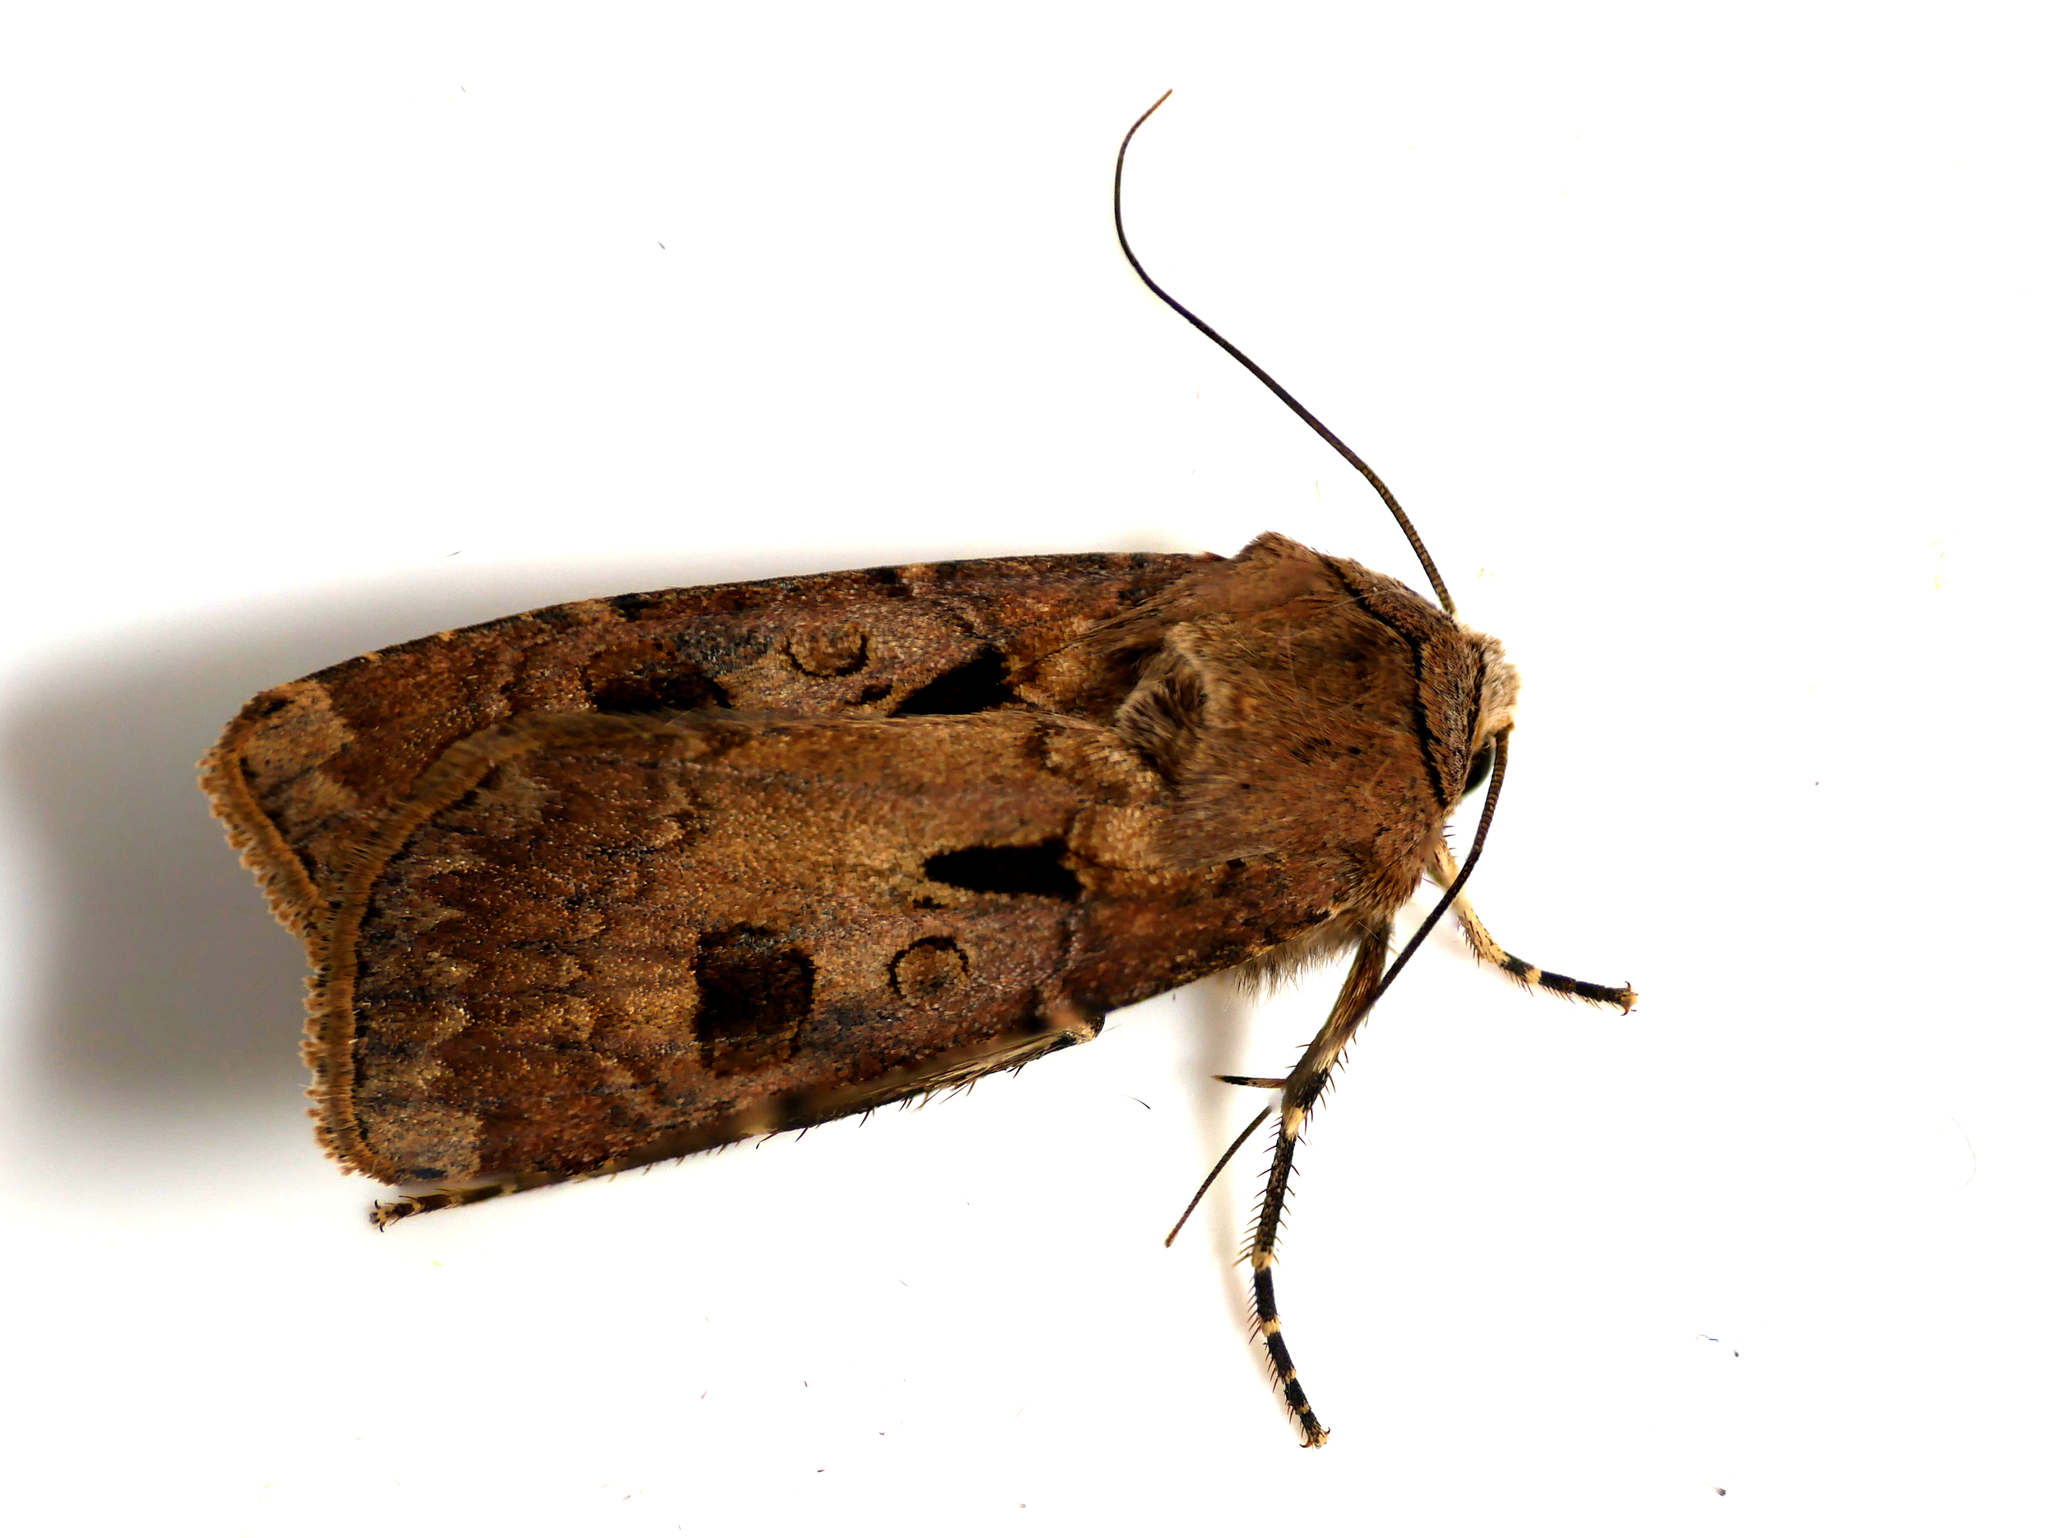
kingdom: Animalia
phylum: Arthropoda
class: Insecta
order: Lepidoptera
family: Noctuidae
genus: Agrotis
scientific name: Agrotis exclamationis
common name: Heart and dart
